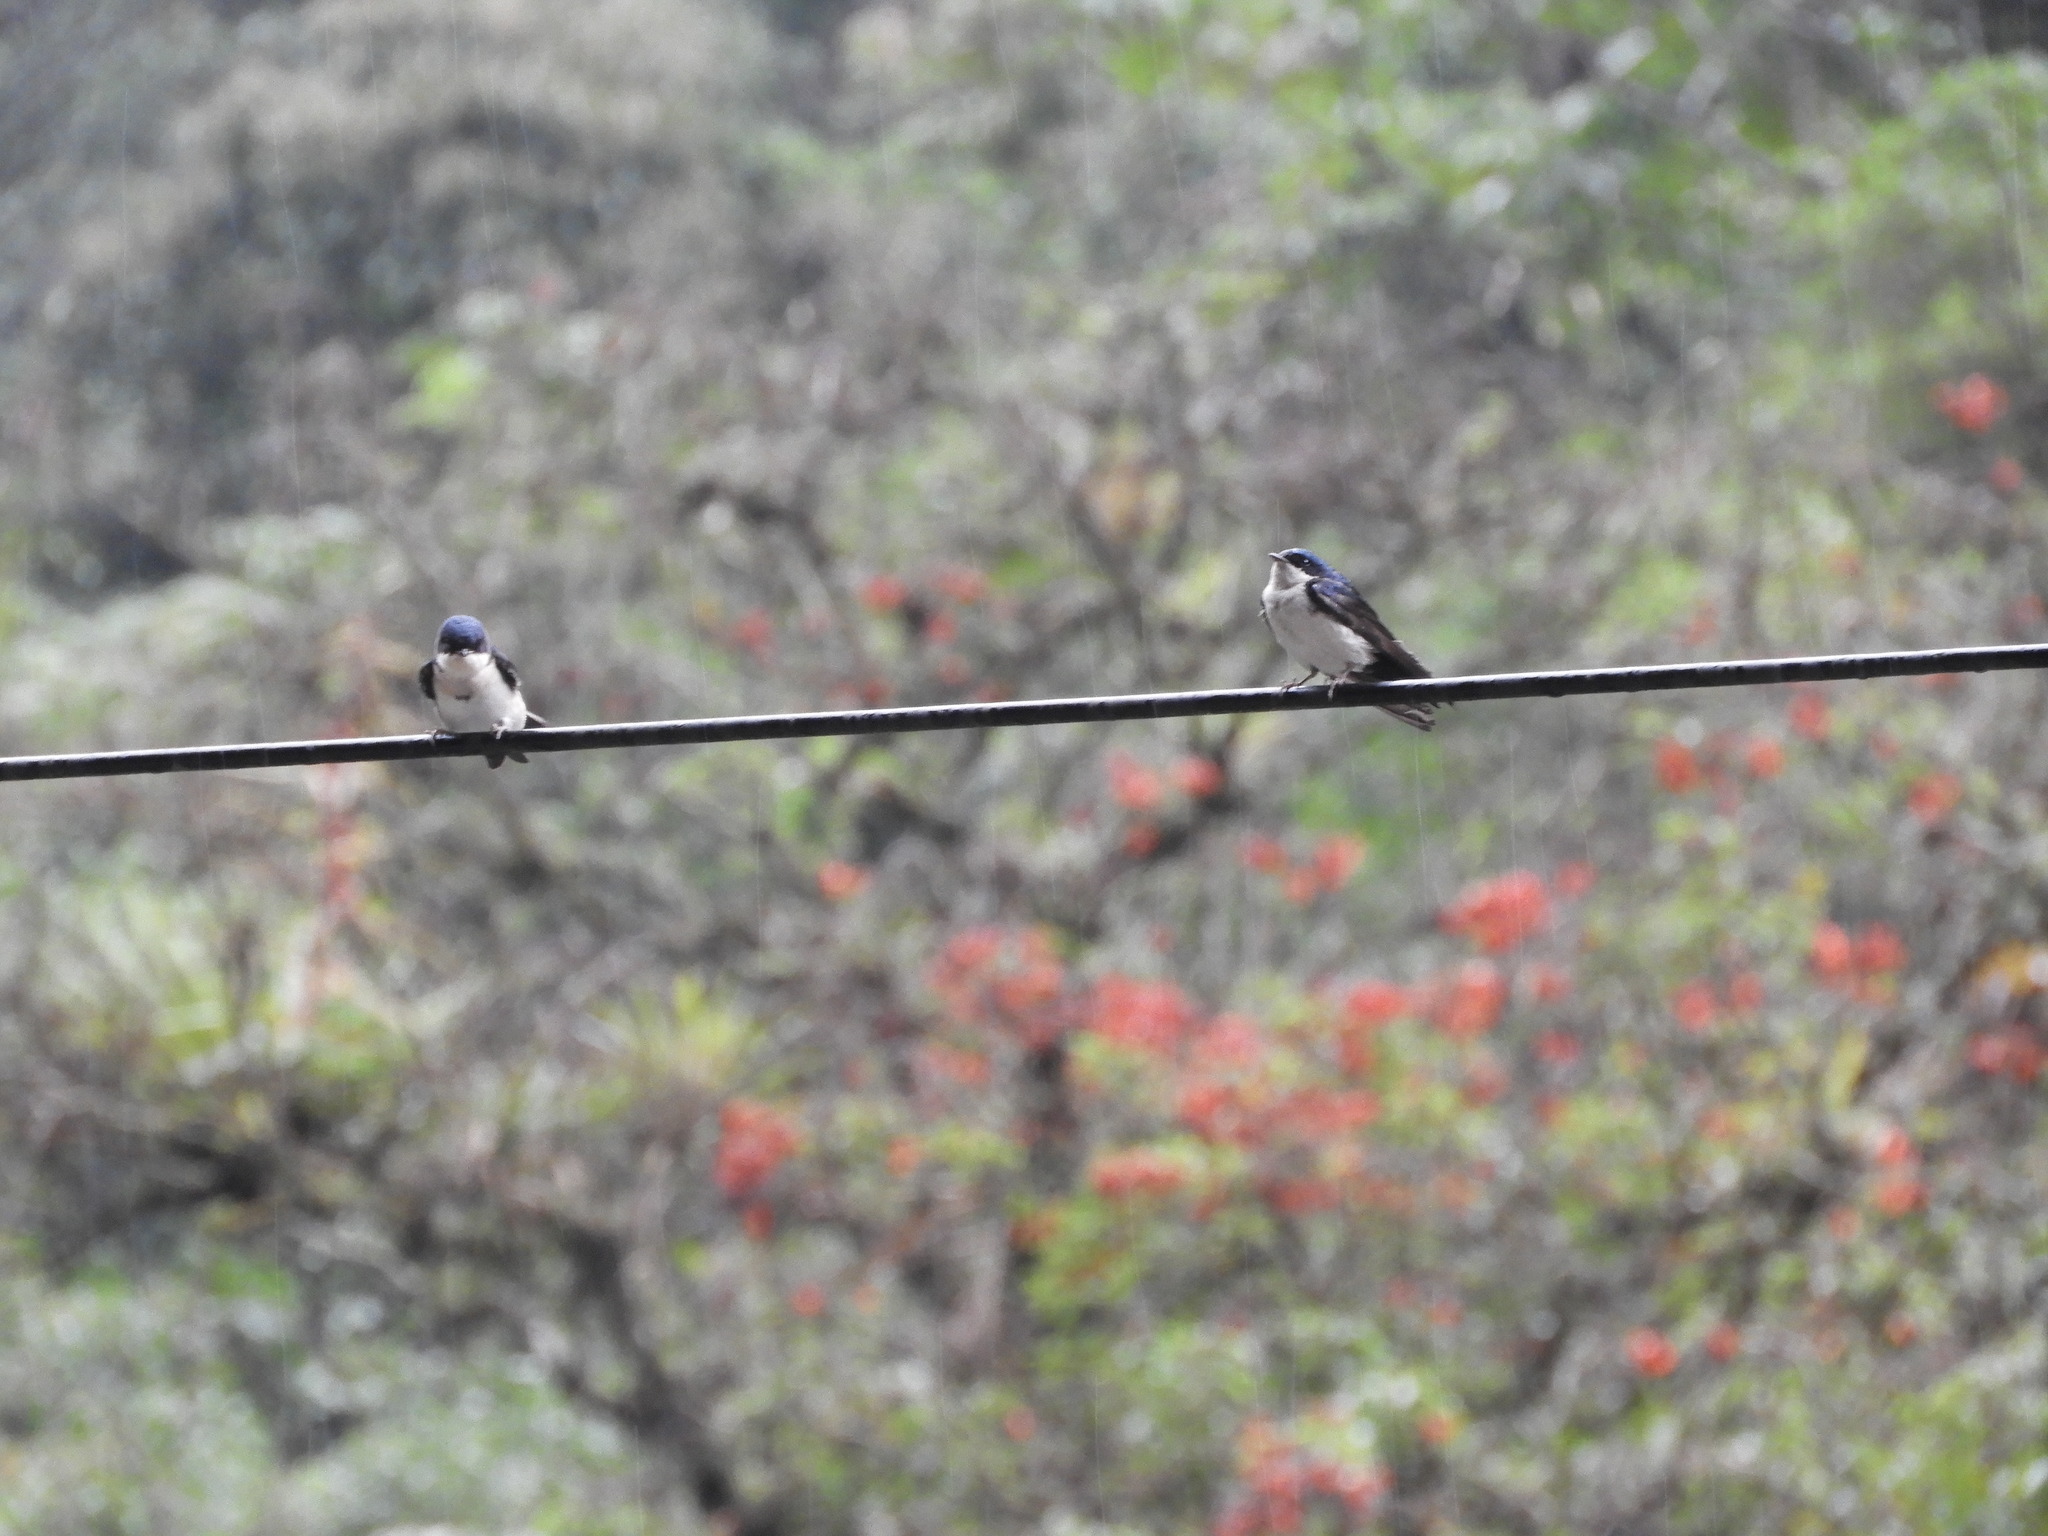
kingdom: Animalia
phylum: Chordata
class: Aves
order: Passeriformes
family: Hirundinidae
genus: Notiochelidon
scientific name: Notiochelidon cyanoleuca
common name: Blue-and-white swallow
